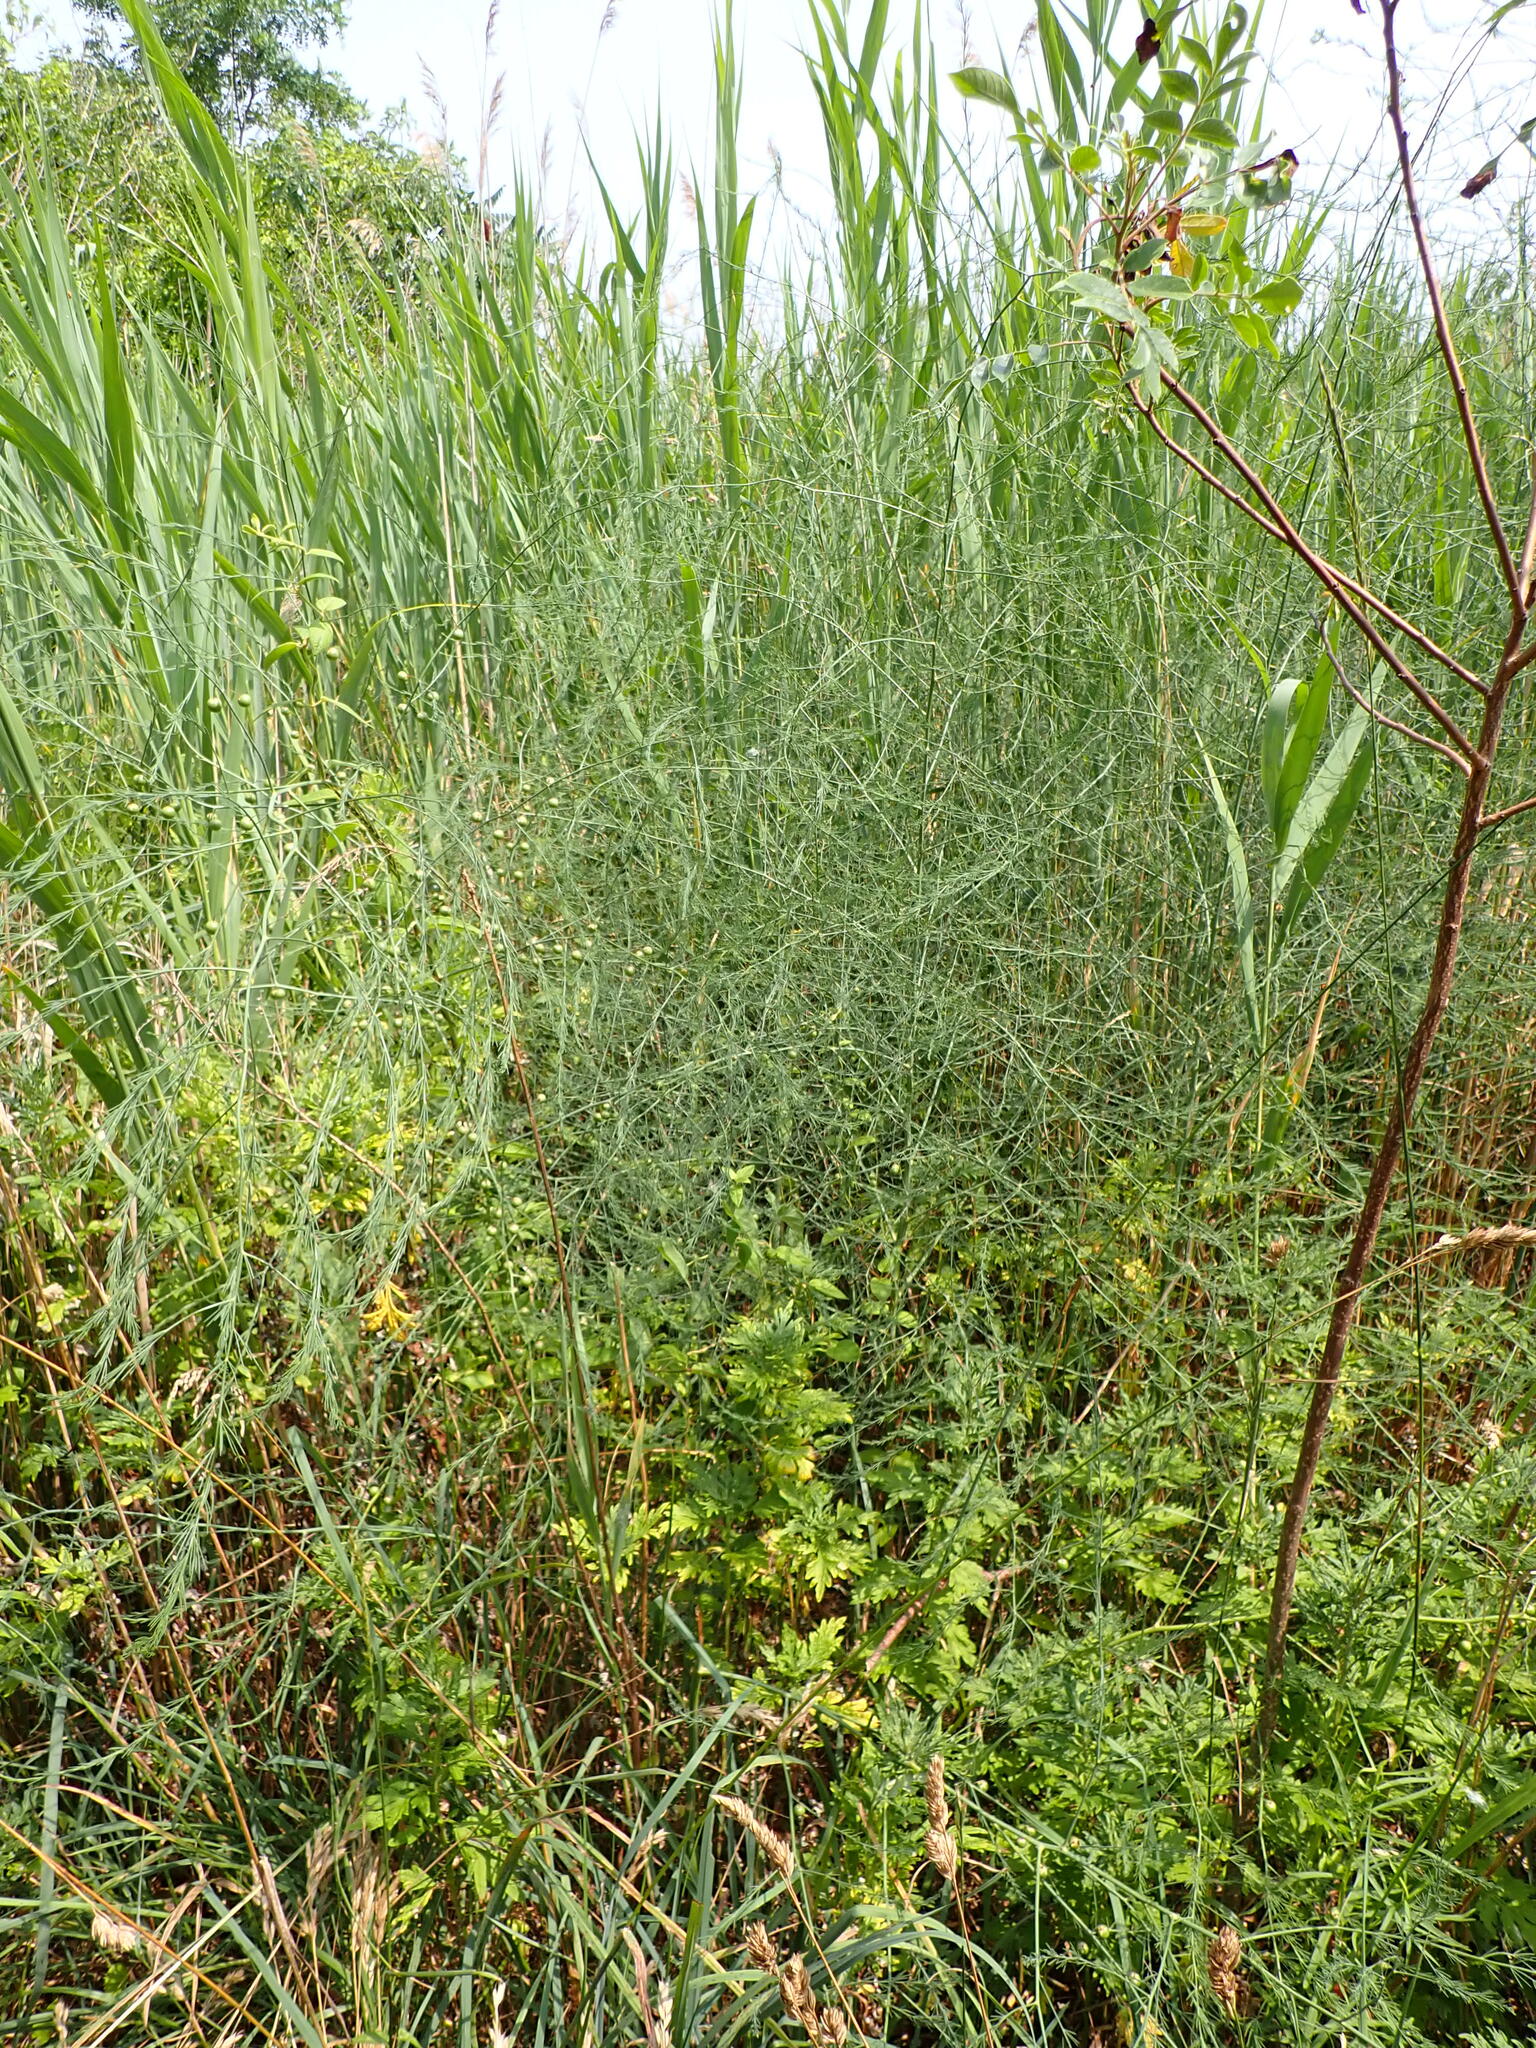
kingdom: Plantae
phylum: Tracheophyta
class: Liliopsida
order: Asparagales
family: Asparagaceae
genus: Asparagus
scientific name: Asparagus officinalis
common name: Garden asparagus
